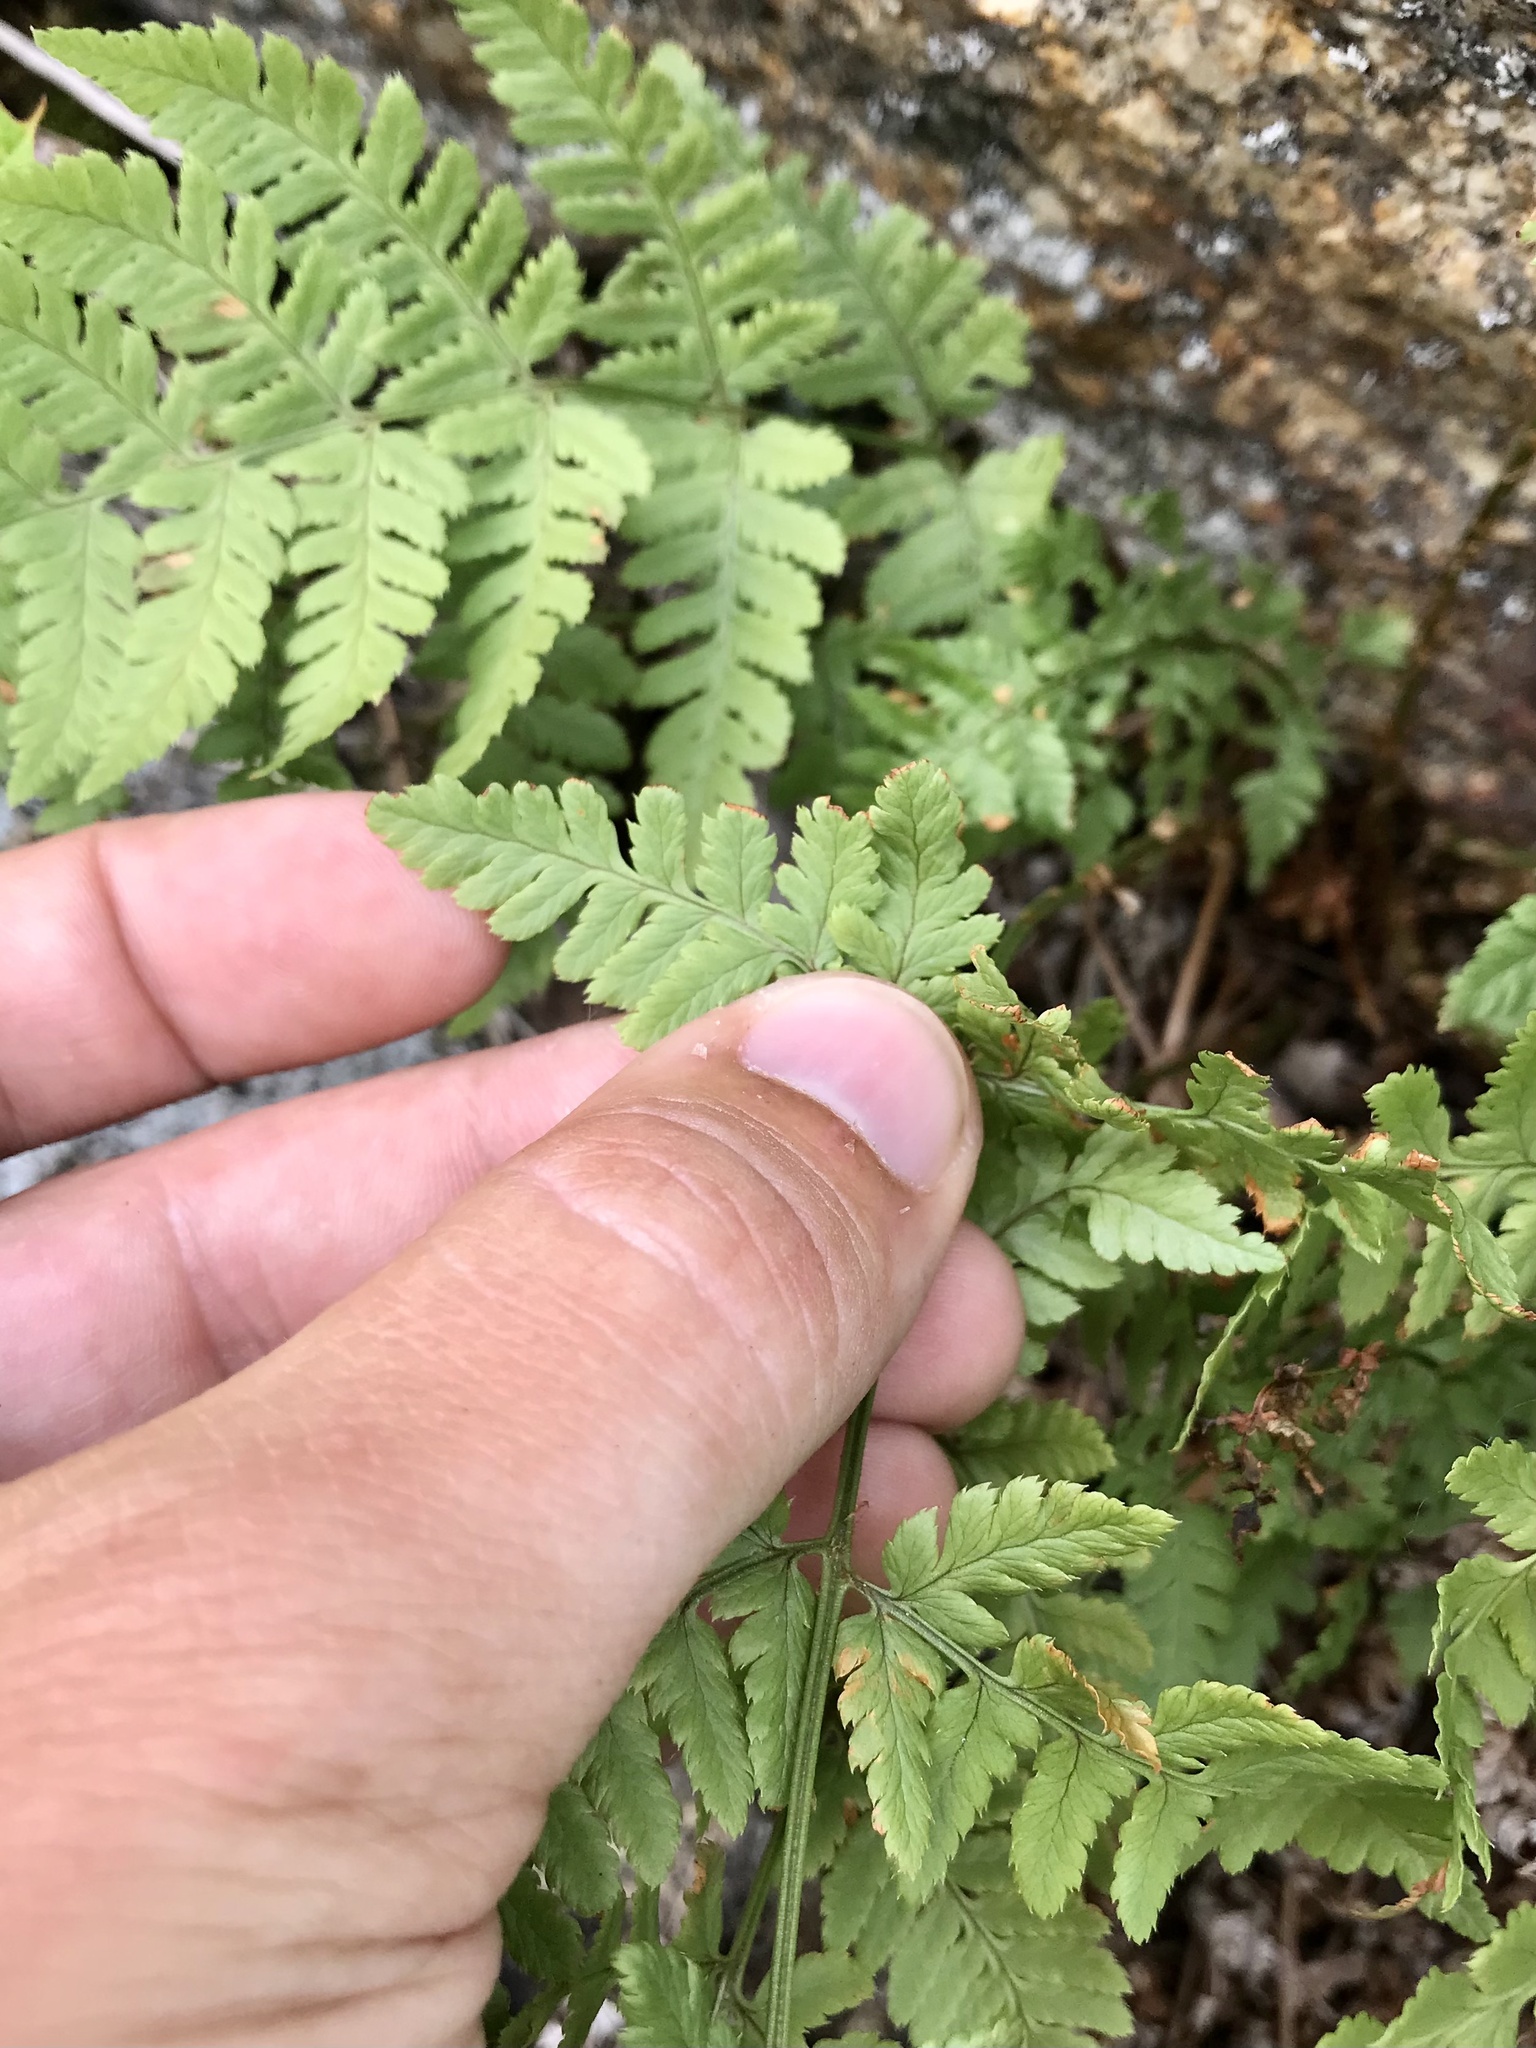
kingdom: Plantae
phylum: Tracheophyta
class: Polypodiopsida
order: Polypodiales
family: Dryopteridaceae
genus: Dryopteris
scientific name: Dryopteris carthusiana
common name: Narrow buckler-fern
